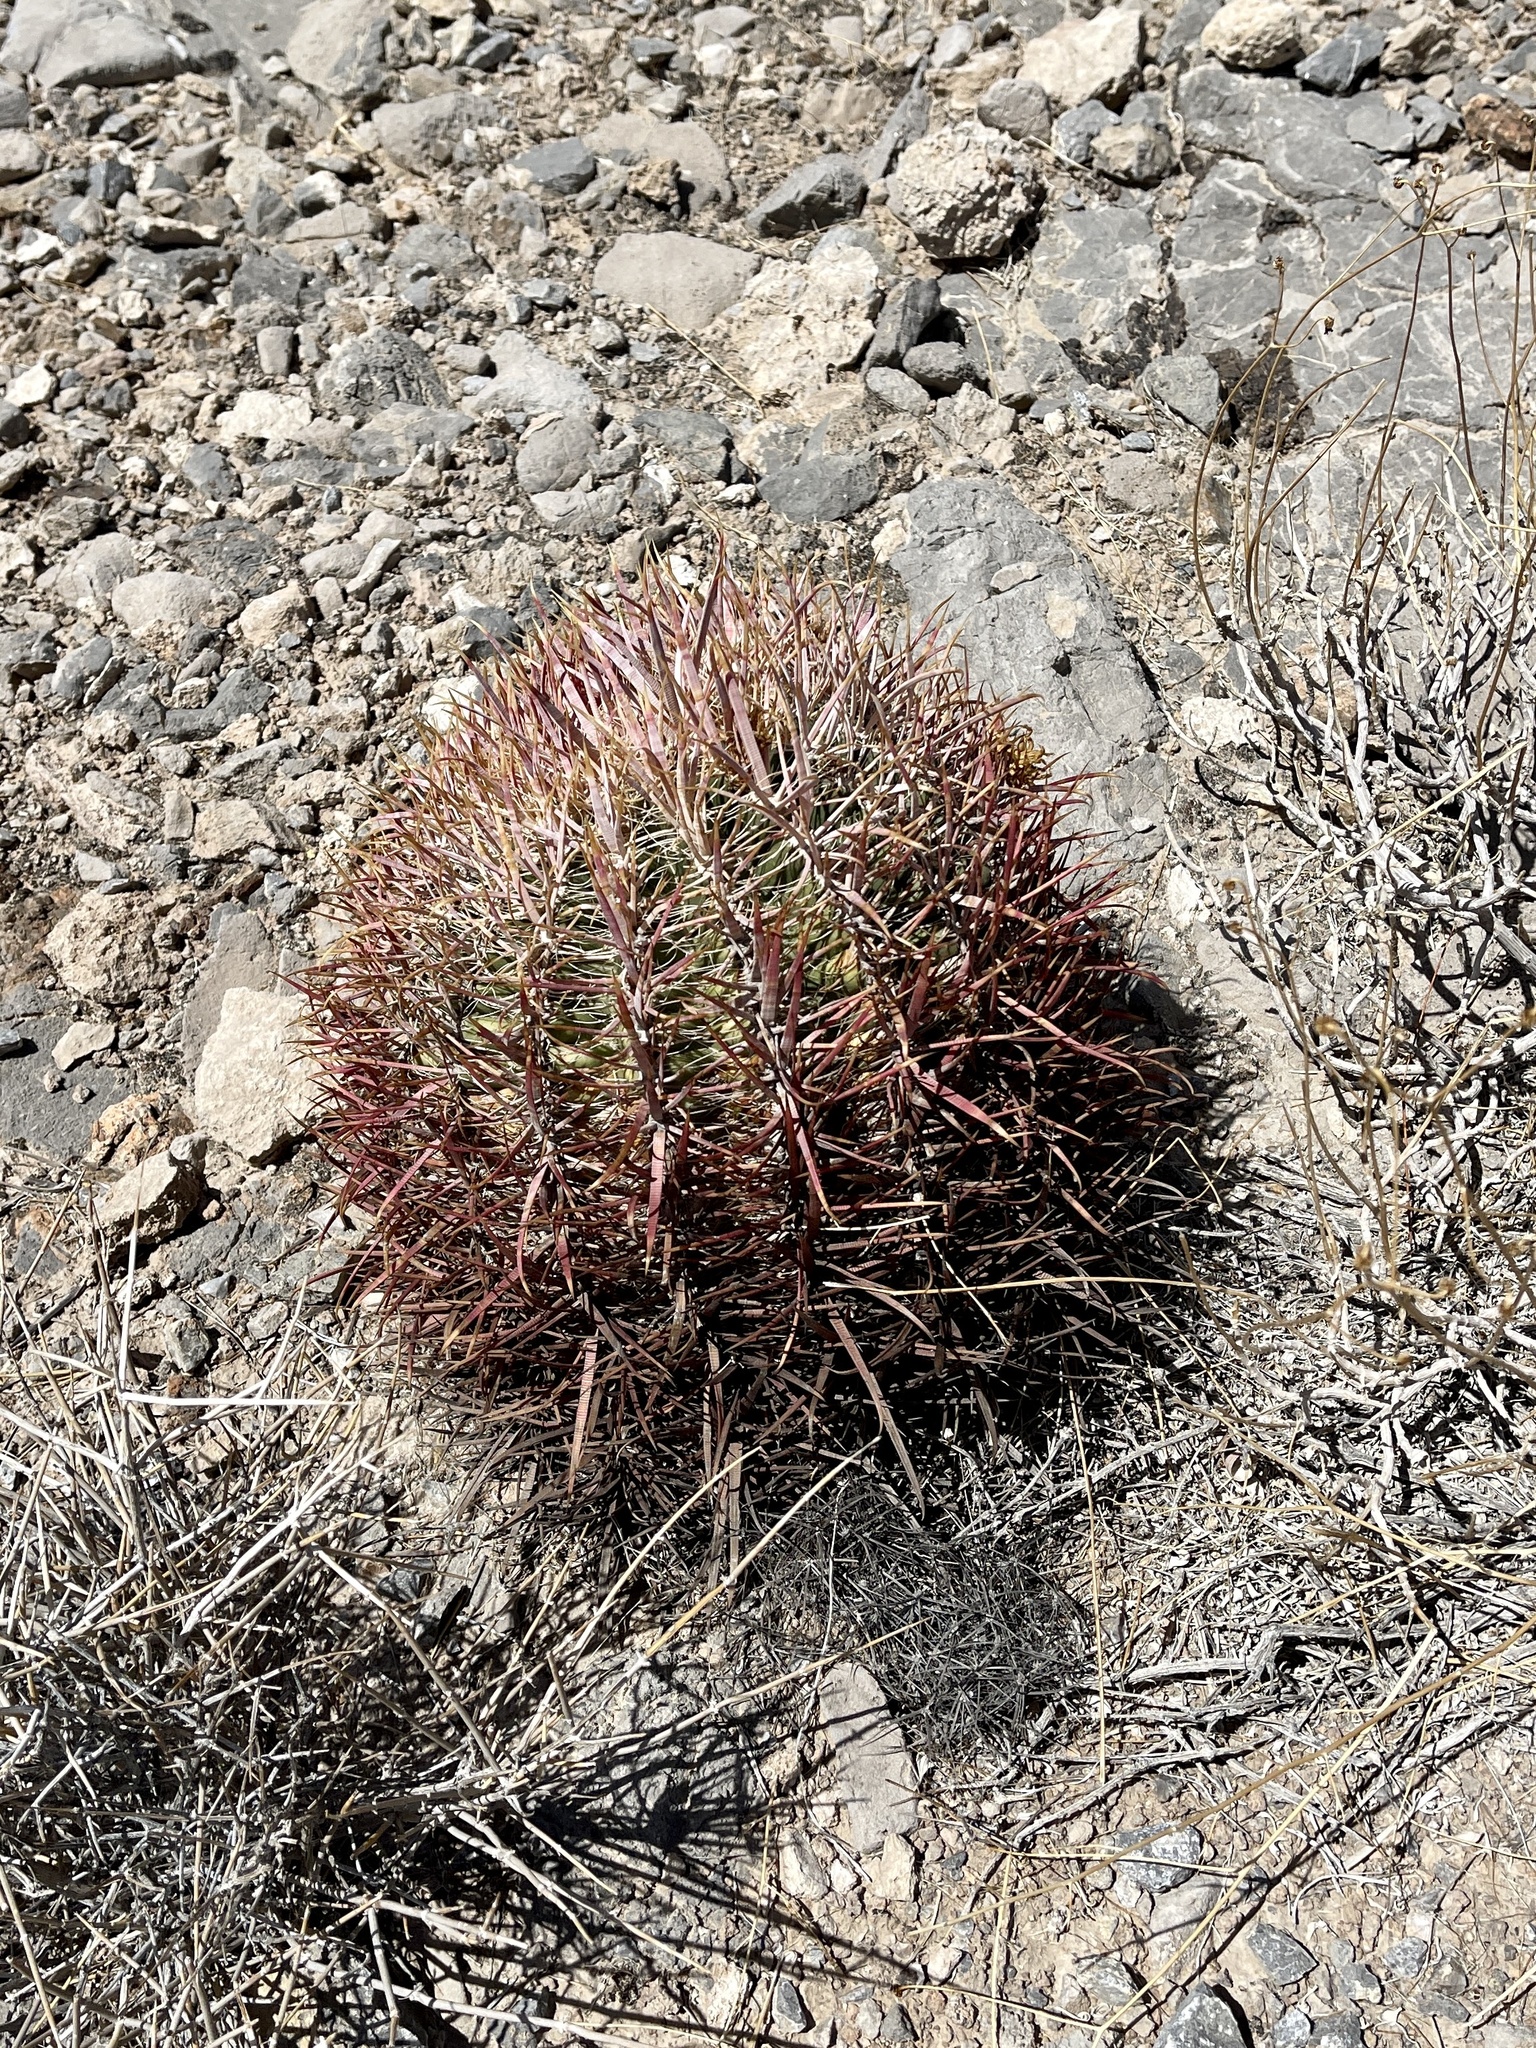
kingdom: Plantae
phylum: Tracheophyta
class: Magnoliopsida
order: Caryophyllales
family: Cactaceae
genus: Ferocactus
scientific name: Ferocactus cylindraceus
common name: California barrel cactus
